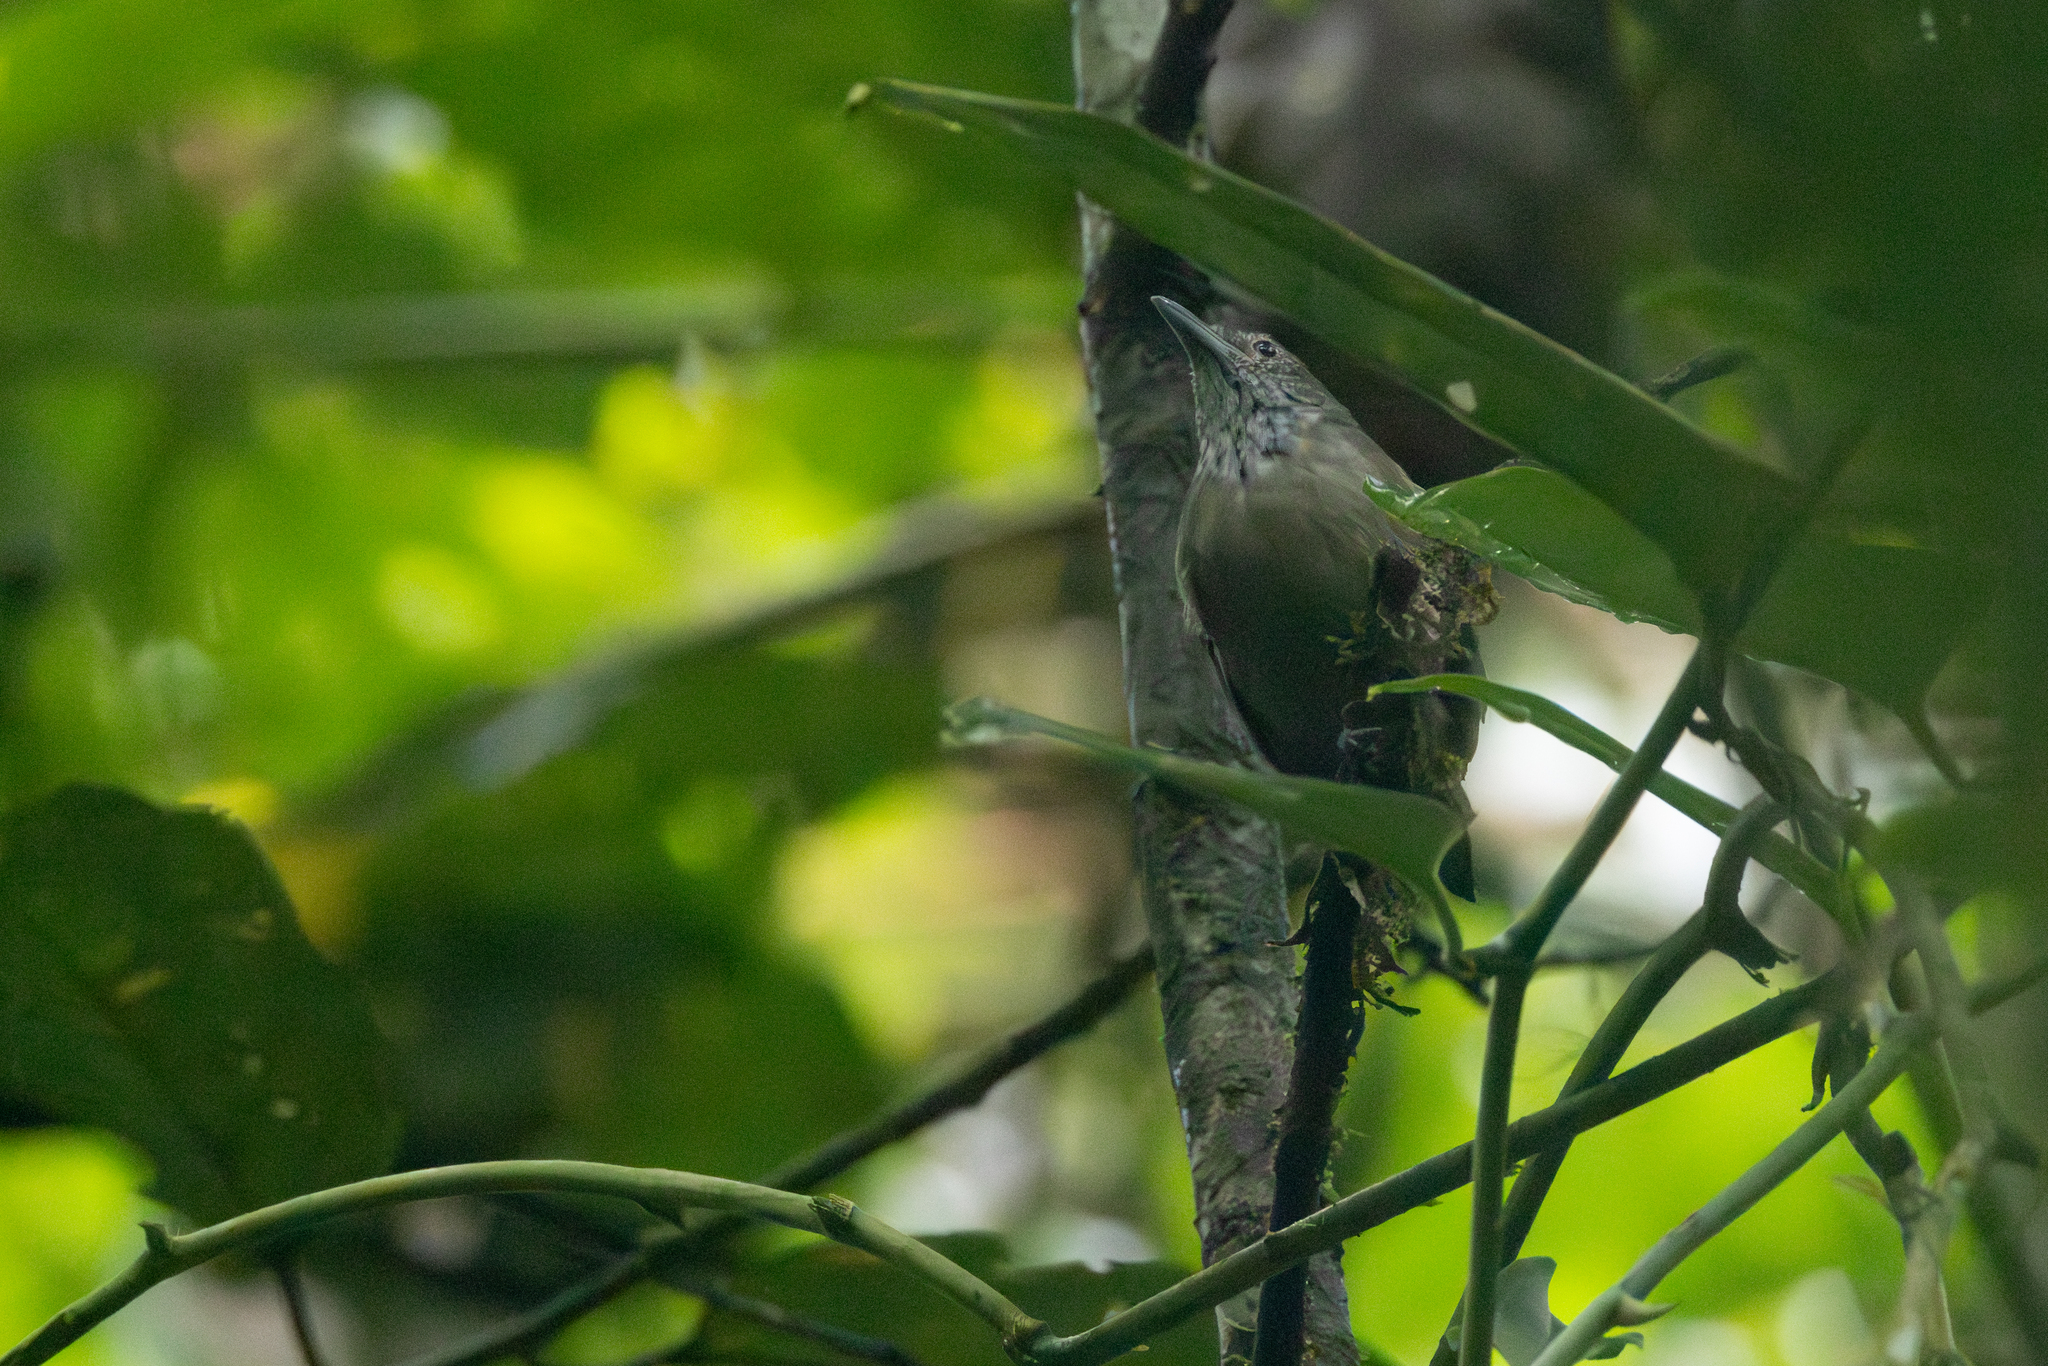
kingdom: Animalia
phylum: Chordata
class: Aves
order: Passeriformes
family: Thamnophilidae
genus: Epinecrophylla
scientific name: Epinecrophylla fulviventris
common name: Checker-throated antwren
